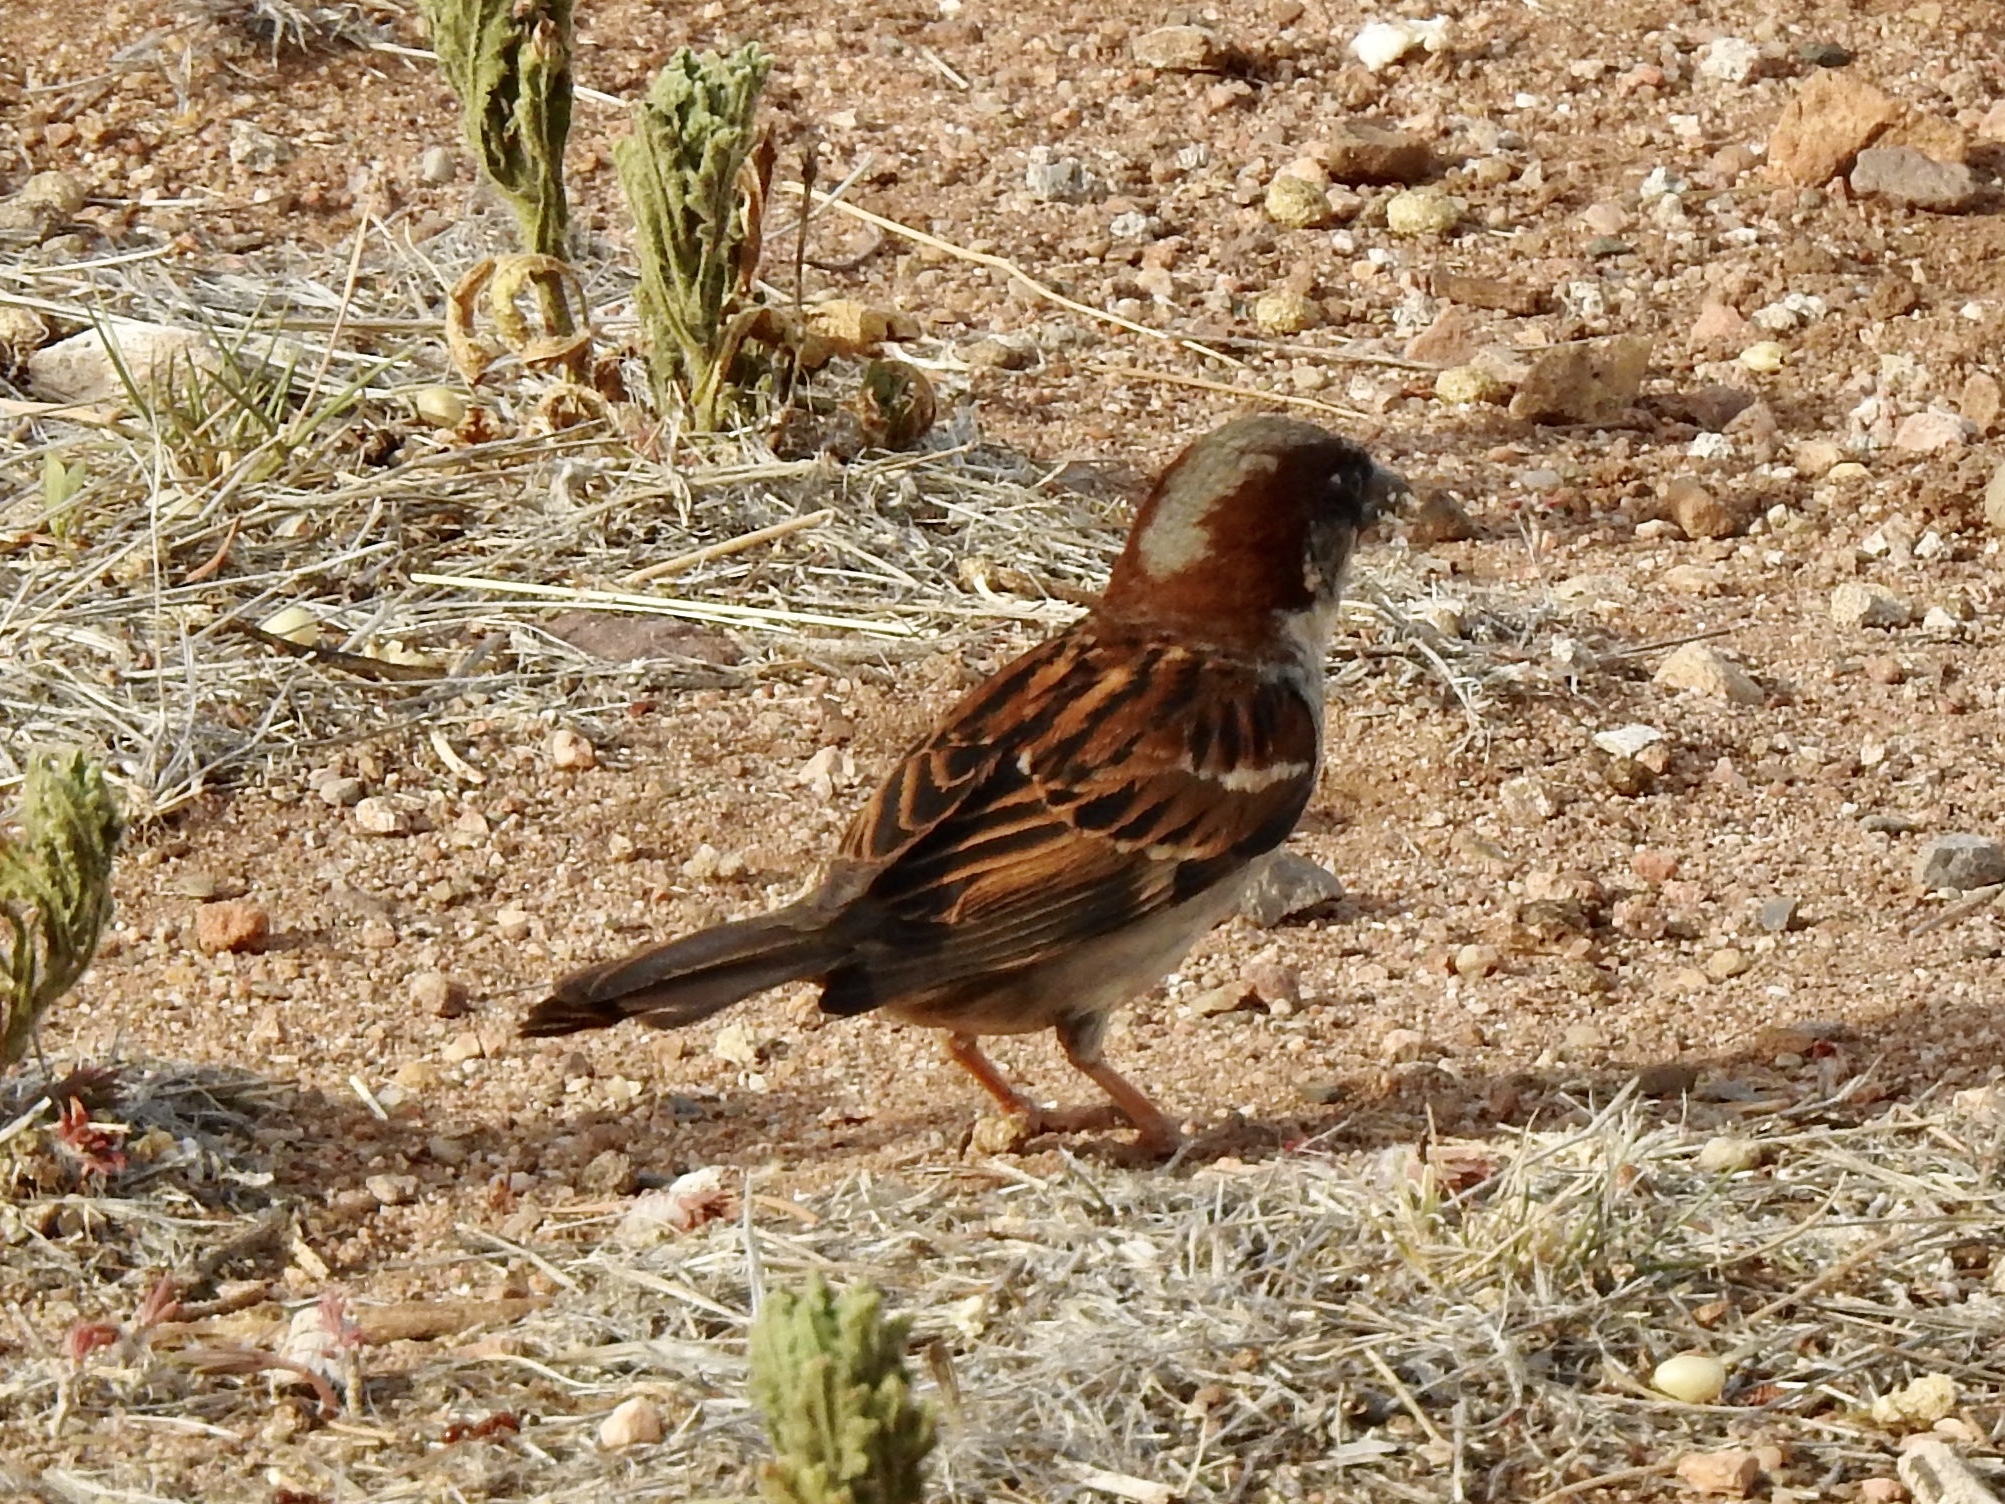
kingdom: Animalia
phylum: Chordata
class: Aves
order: Passeriformes
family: Passeridae
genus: Passer
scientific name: Passer domesticus
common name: House sparrow
